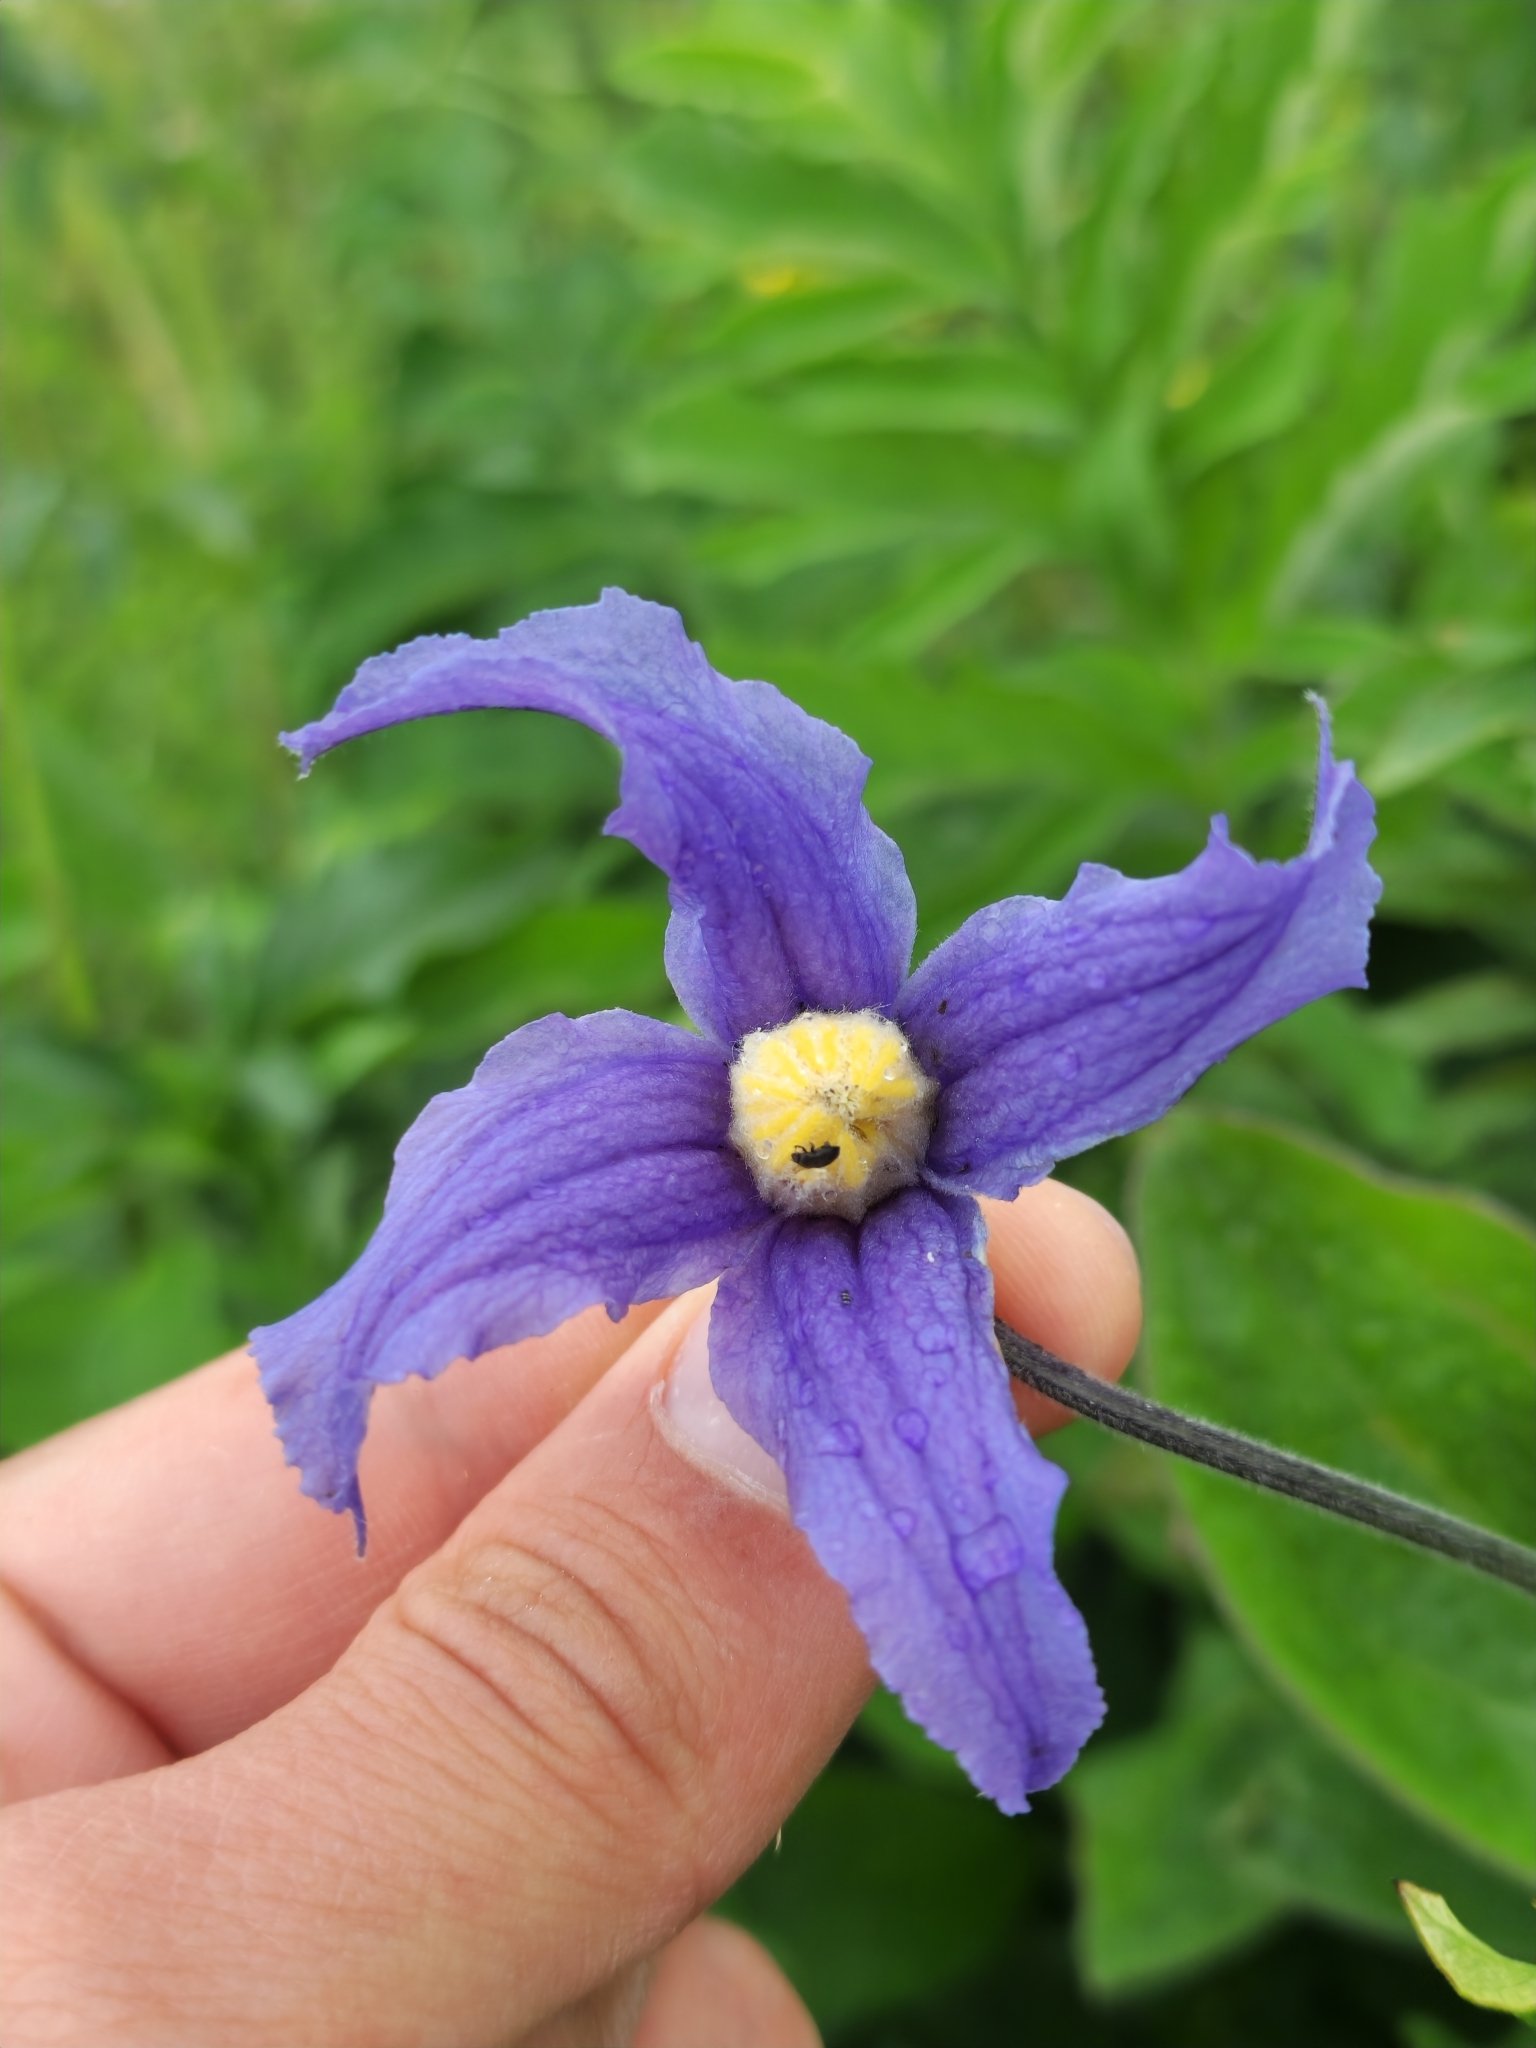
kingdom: Plantae
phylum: Tracheophyta
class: Magnoliopsida
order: Ranunculales
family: Ranunculaceae
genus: Clematis
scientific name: Clematis integrifolia
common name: Solitary clematis
